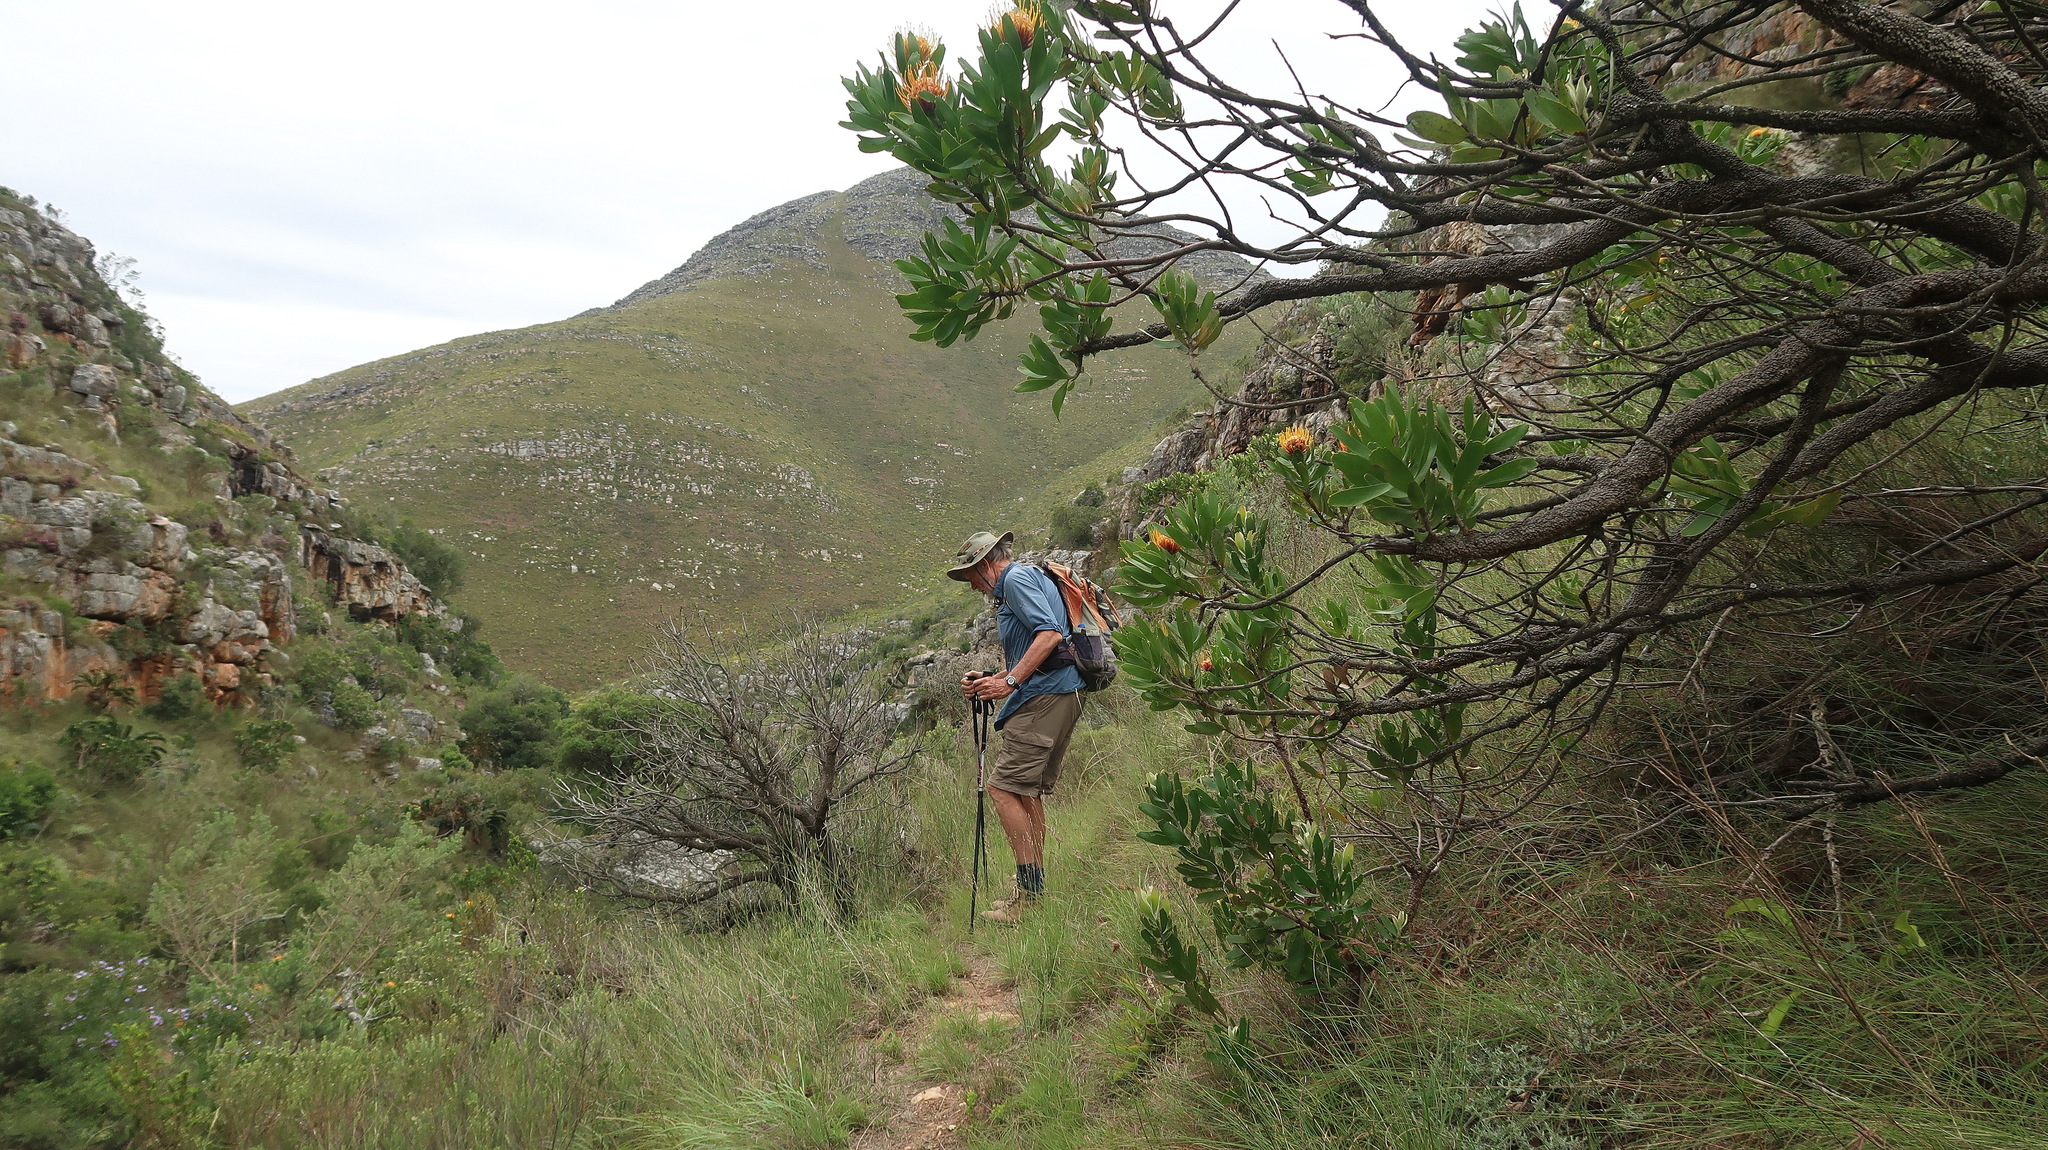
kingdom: Plantae
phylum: Tracheophyta
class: Magnoliopsida
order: Proteales
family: Proteaceae
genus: Leucospermum
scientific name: Leucospermum cuneiforme
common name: Common pincushion
